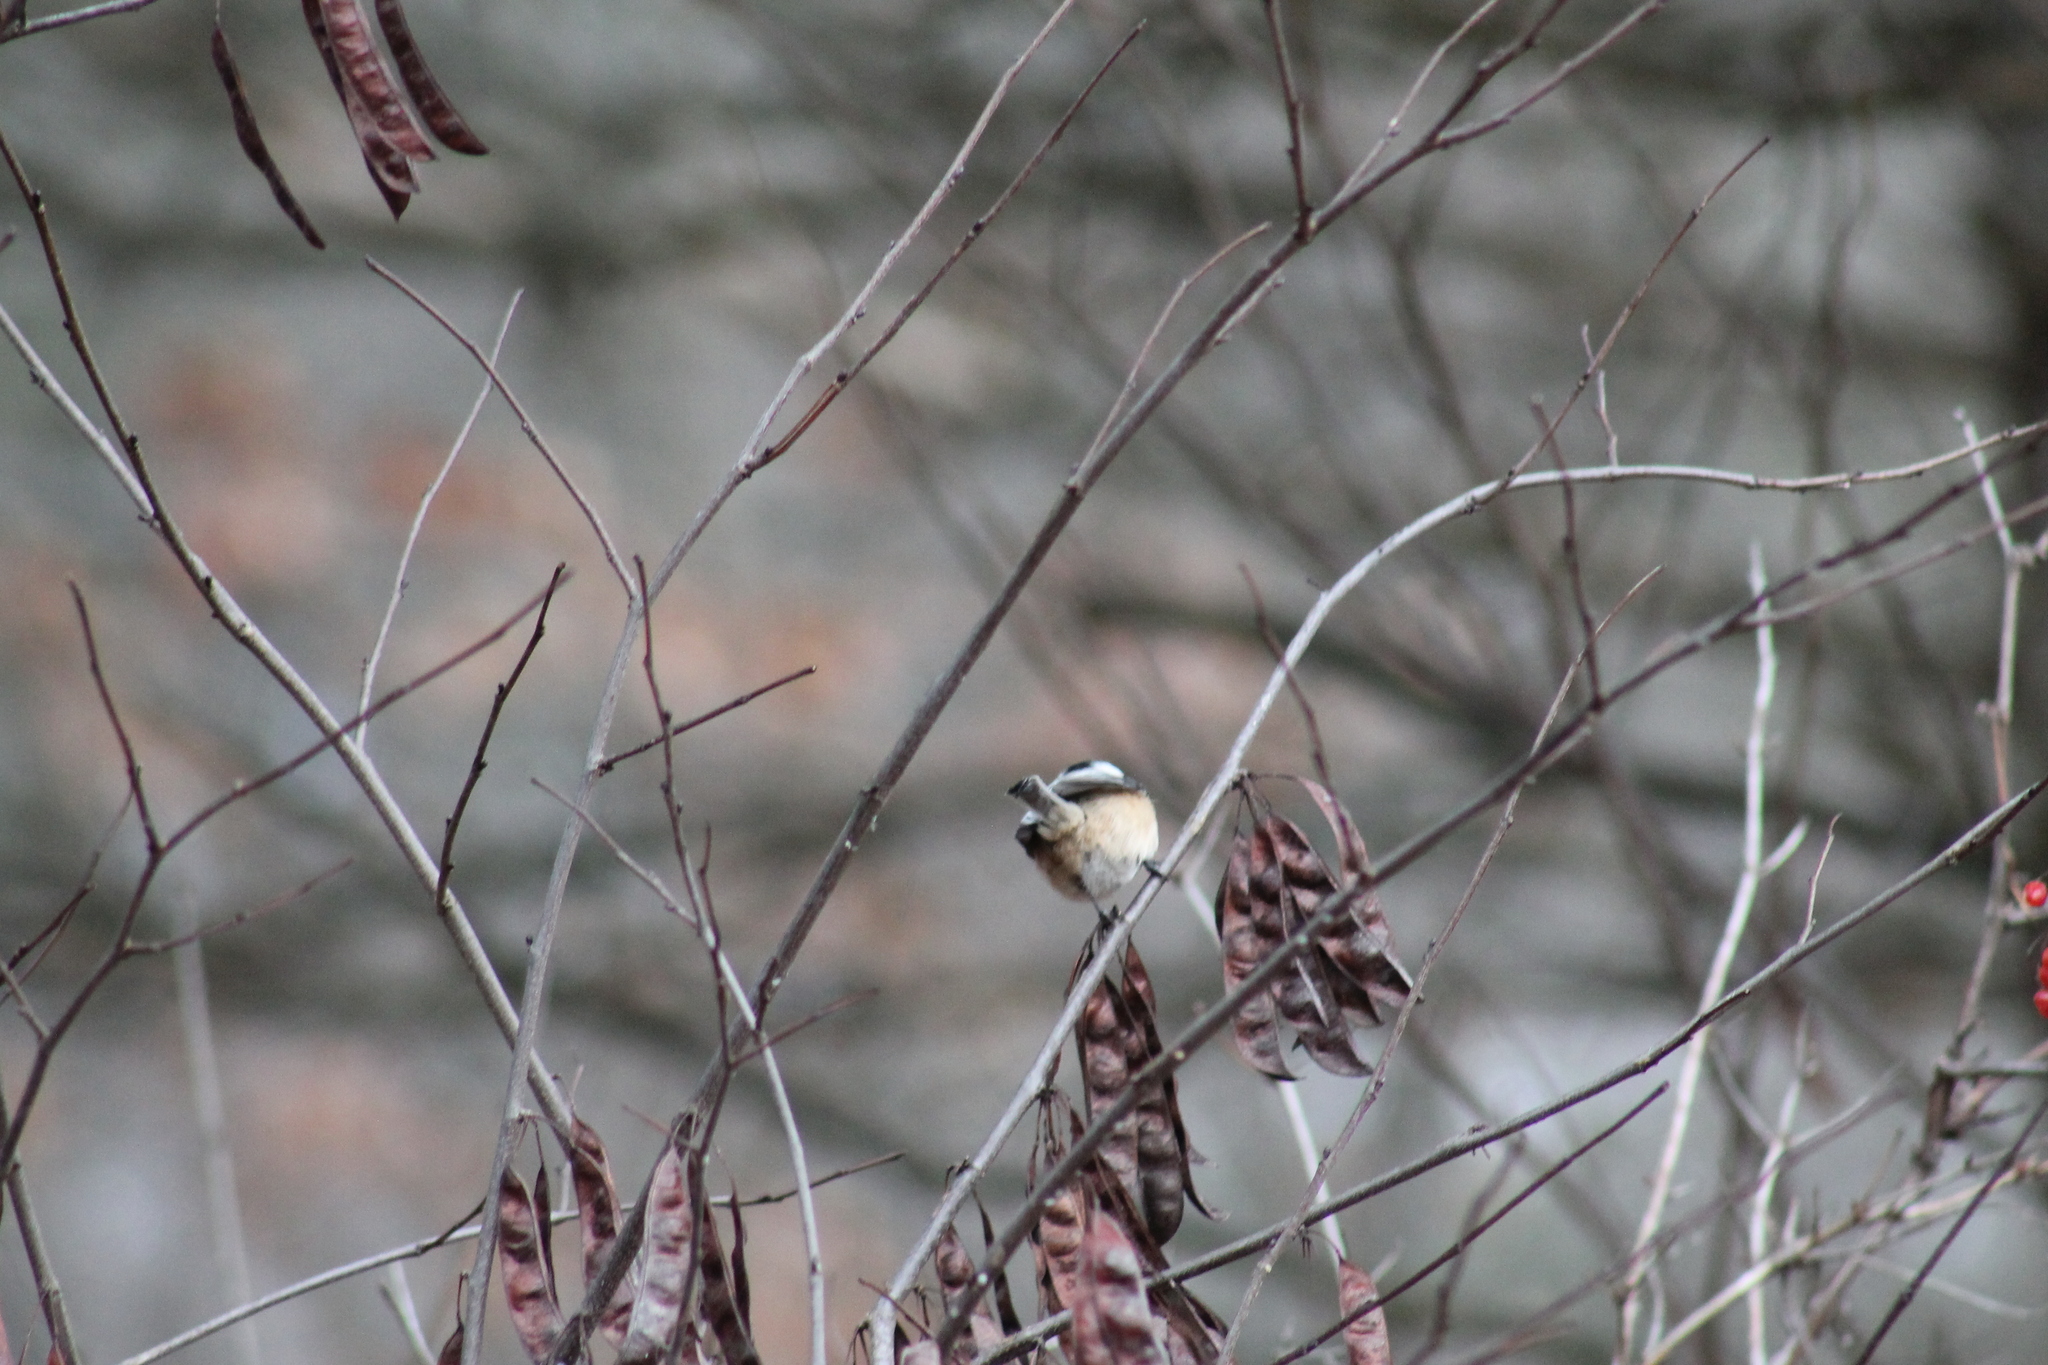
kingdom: Animalia
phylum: Chordata
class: Aves
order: Passeriformes
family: Paridae
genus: Poecile
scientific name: Poecile atricapillus
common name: Black-capped chickadee
